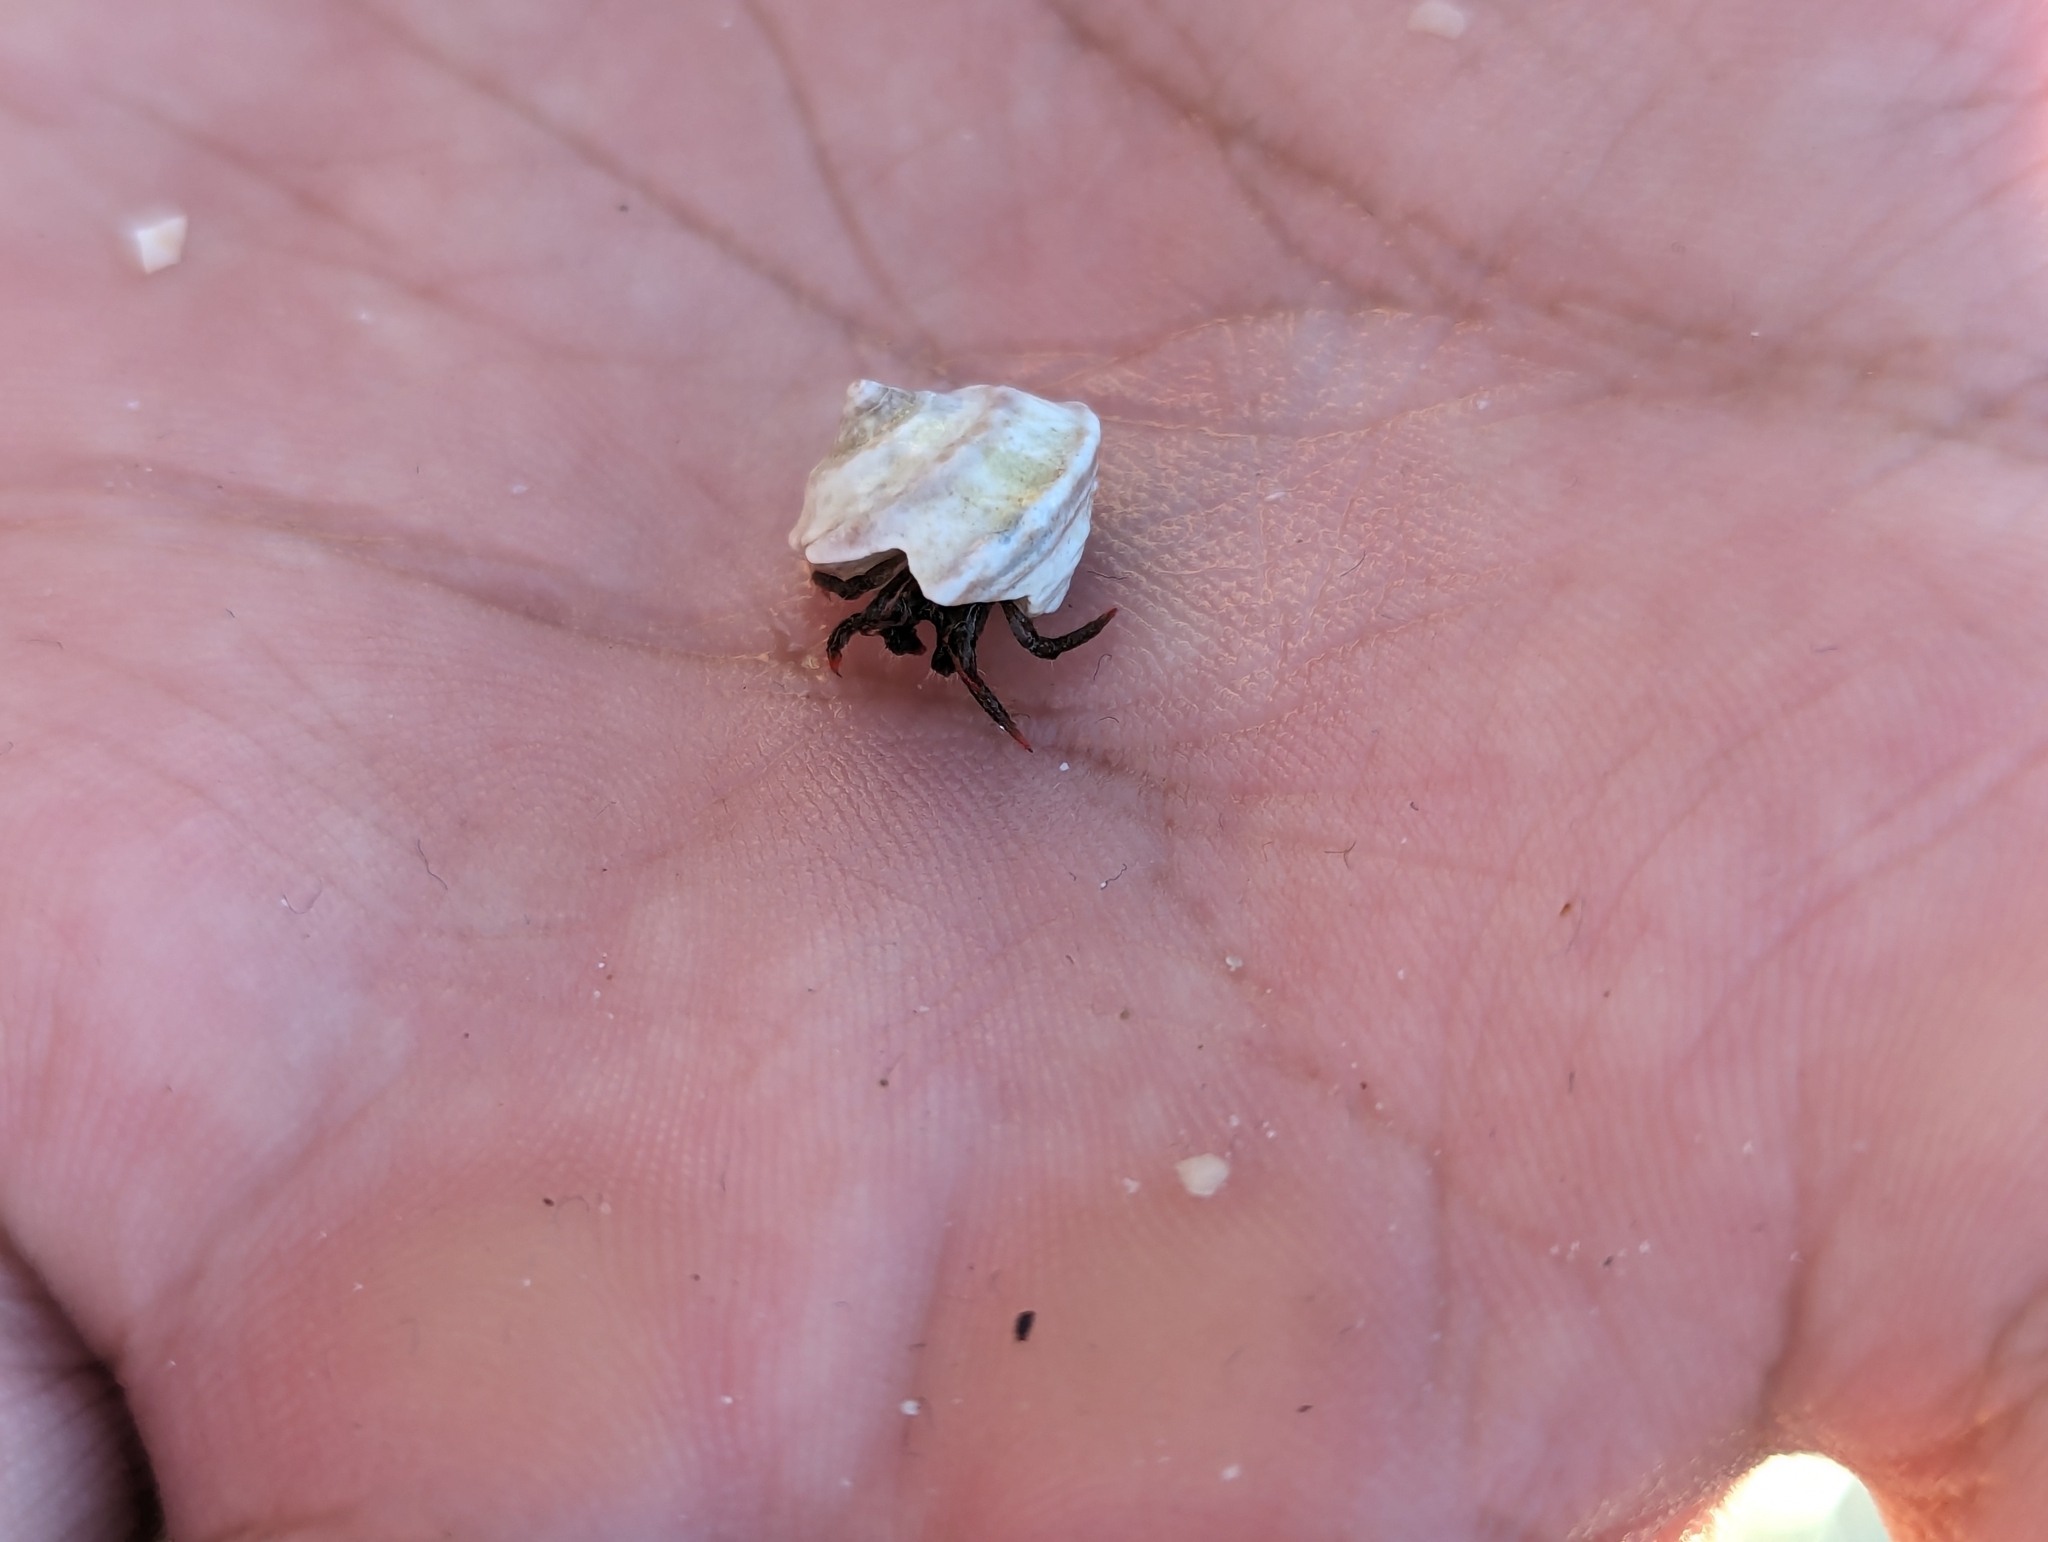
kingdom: Animalia
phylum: Arthropoda
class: Malacostraca
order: Decapoda
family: Diogenidae
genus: Clibanarius
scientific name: Clibanarius digueti
